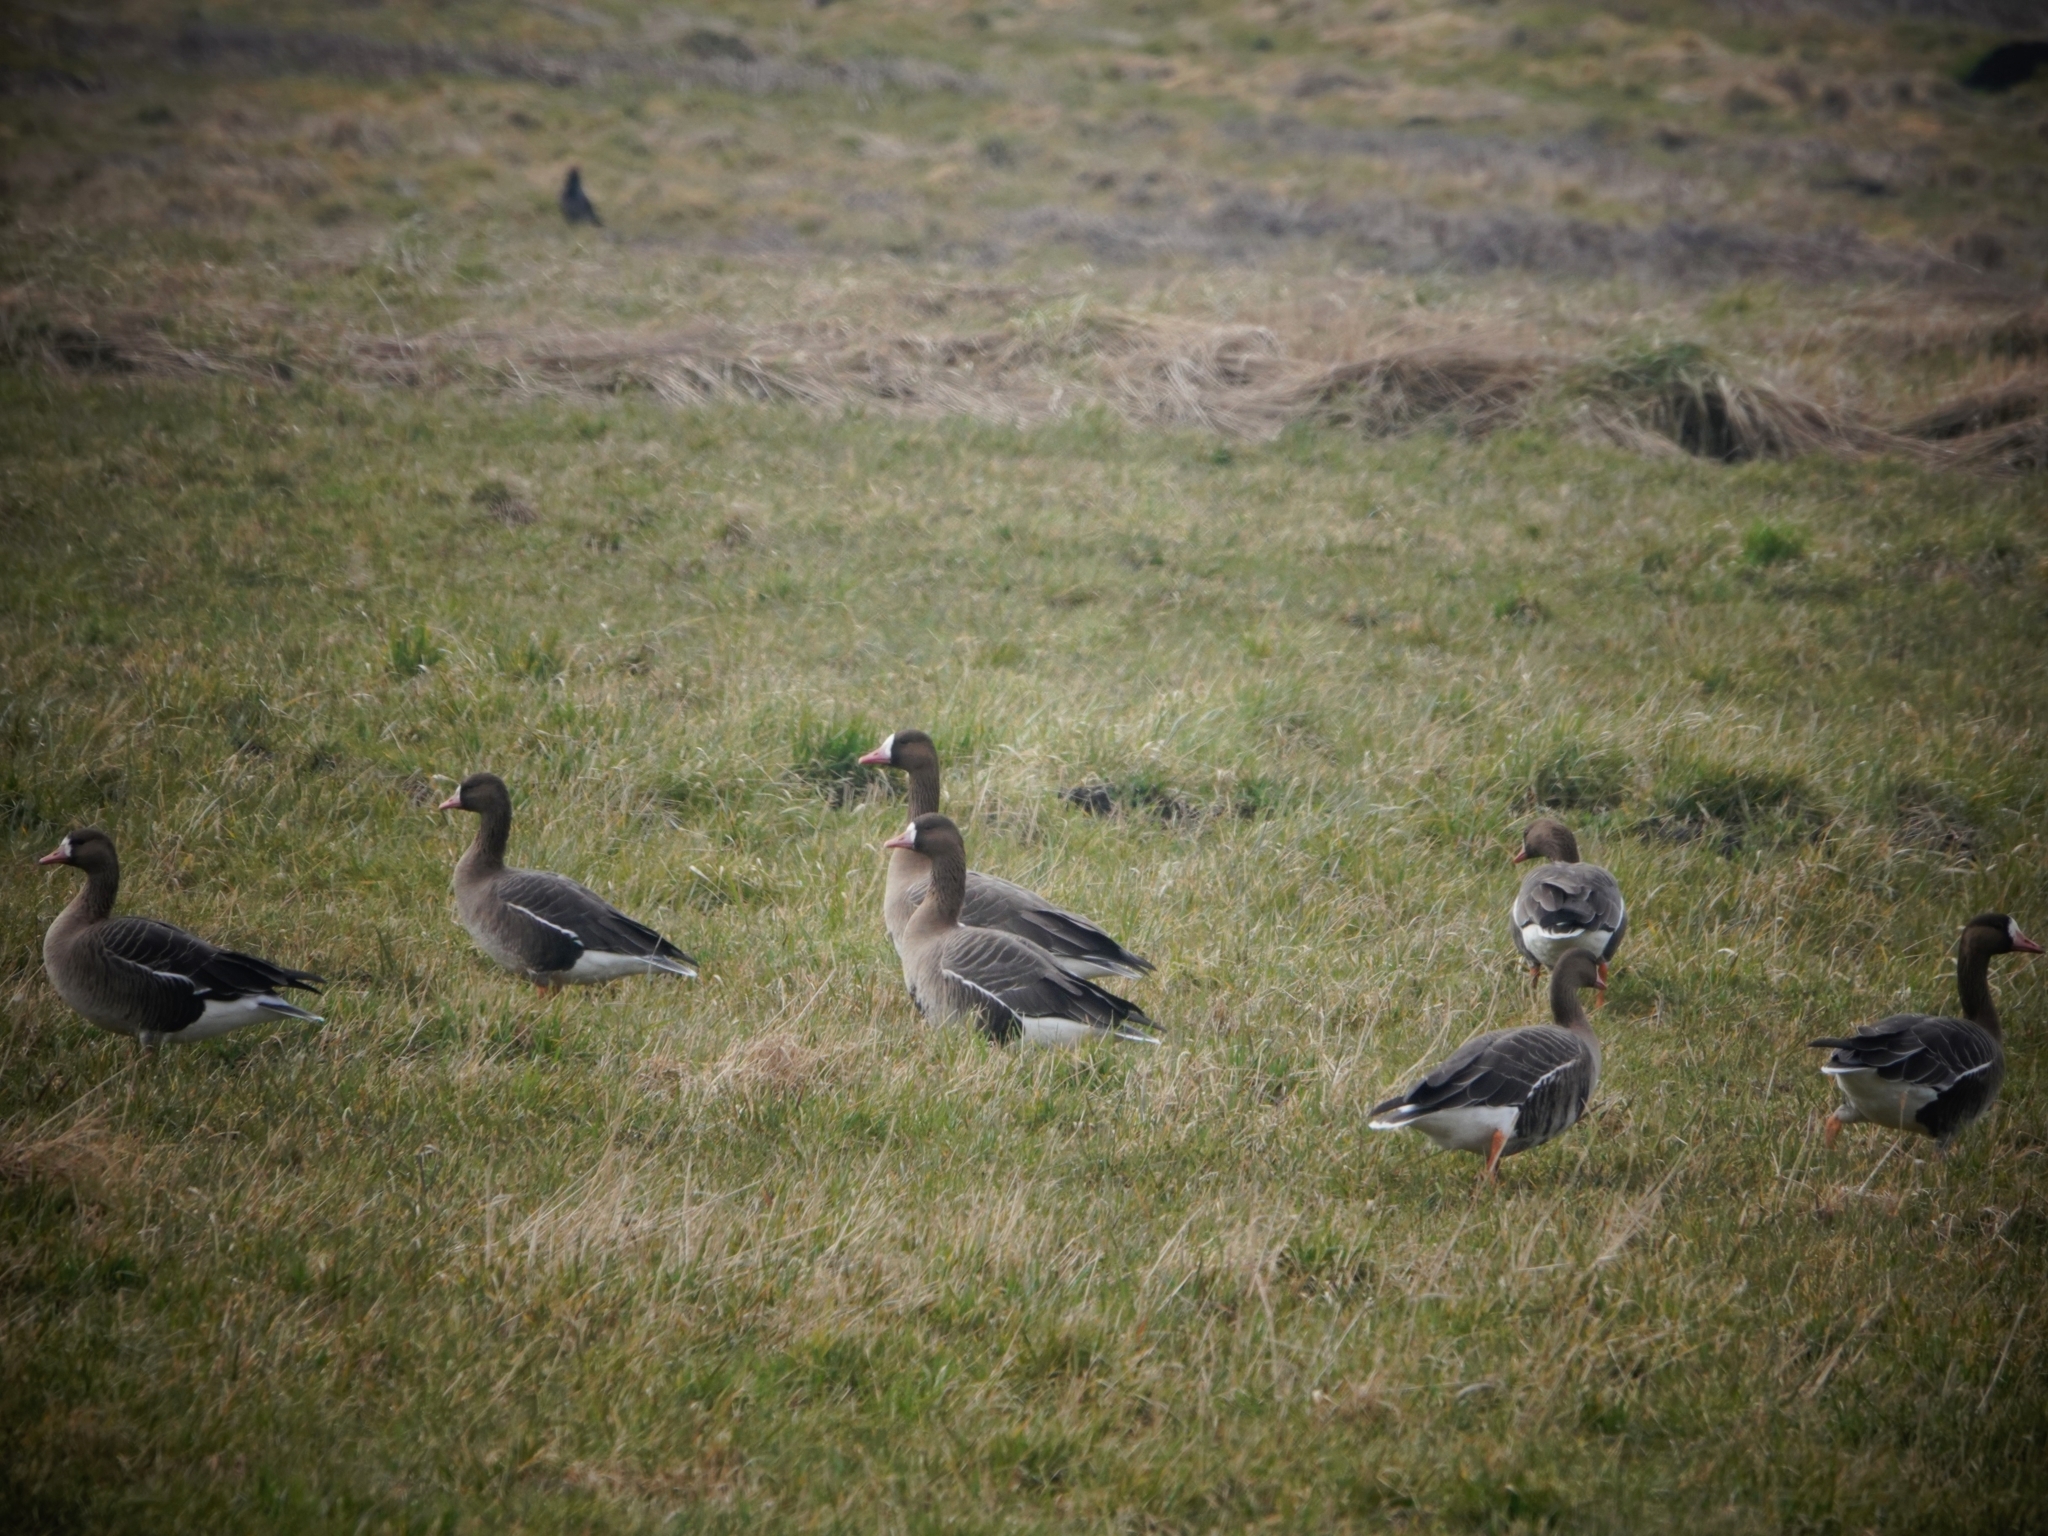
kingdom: Animalia
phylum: Chordata
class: Aves
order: Anseriformes
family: Anatidae
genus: Anser
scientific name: Anser albifrons
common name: Greater white-fronted goose
